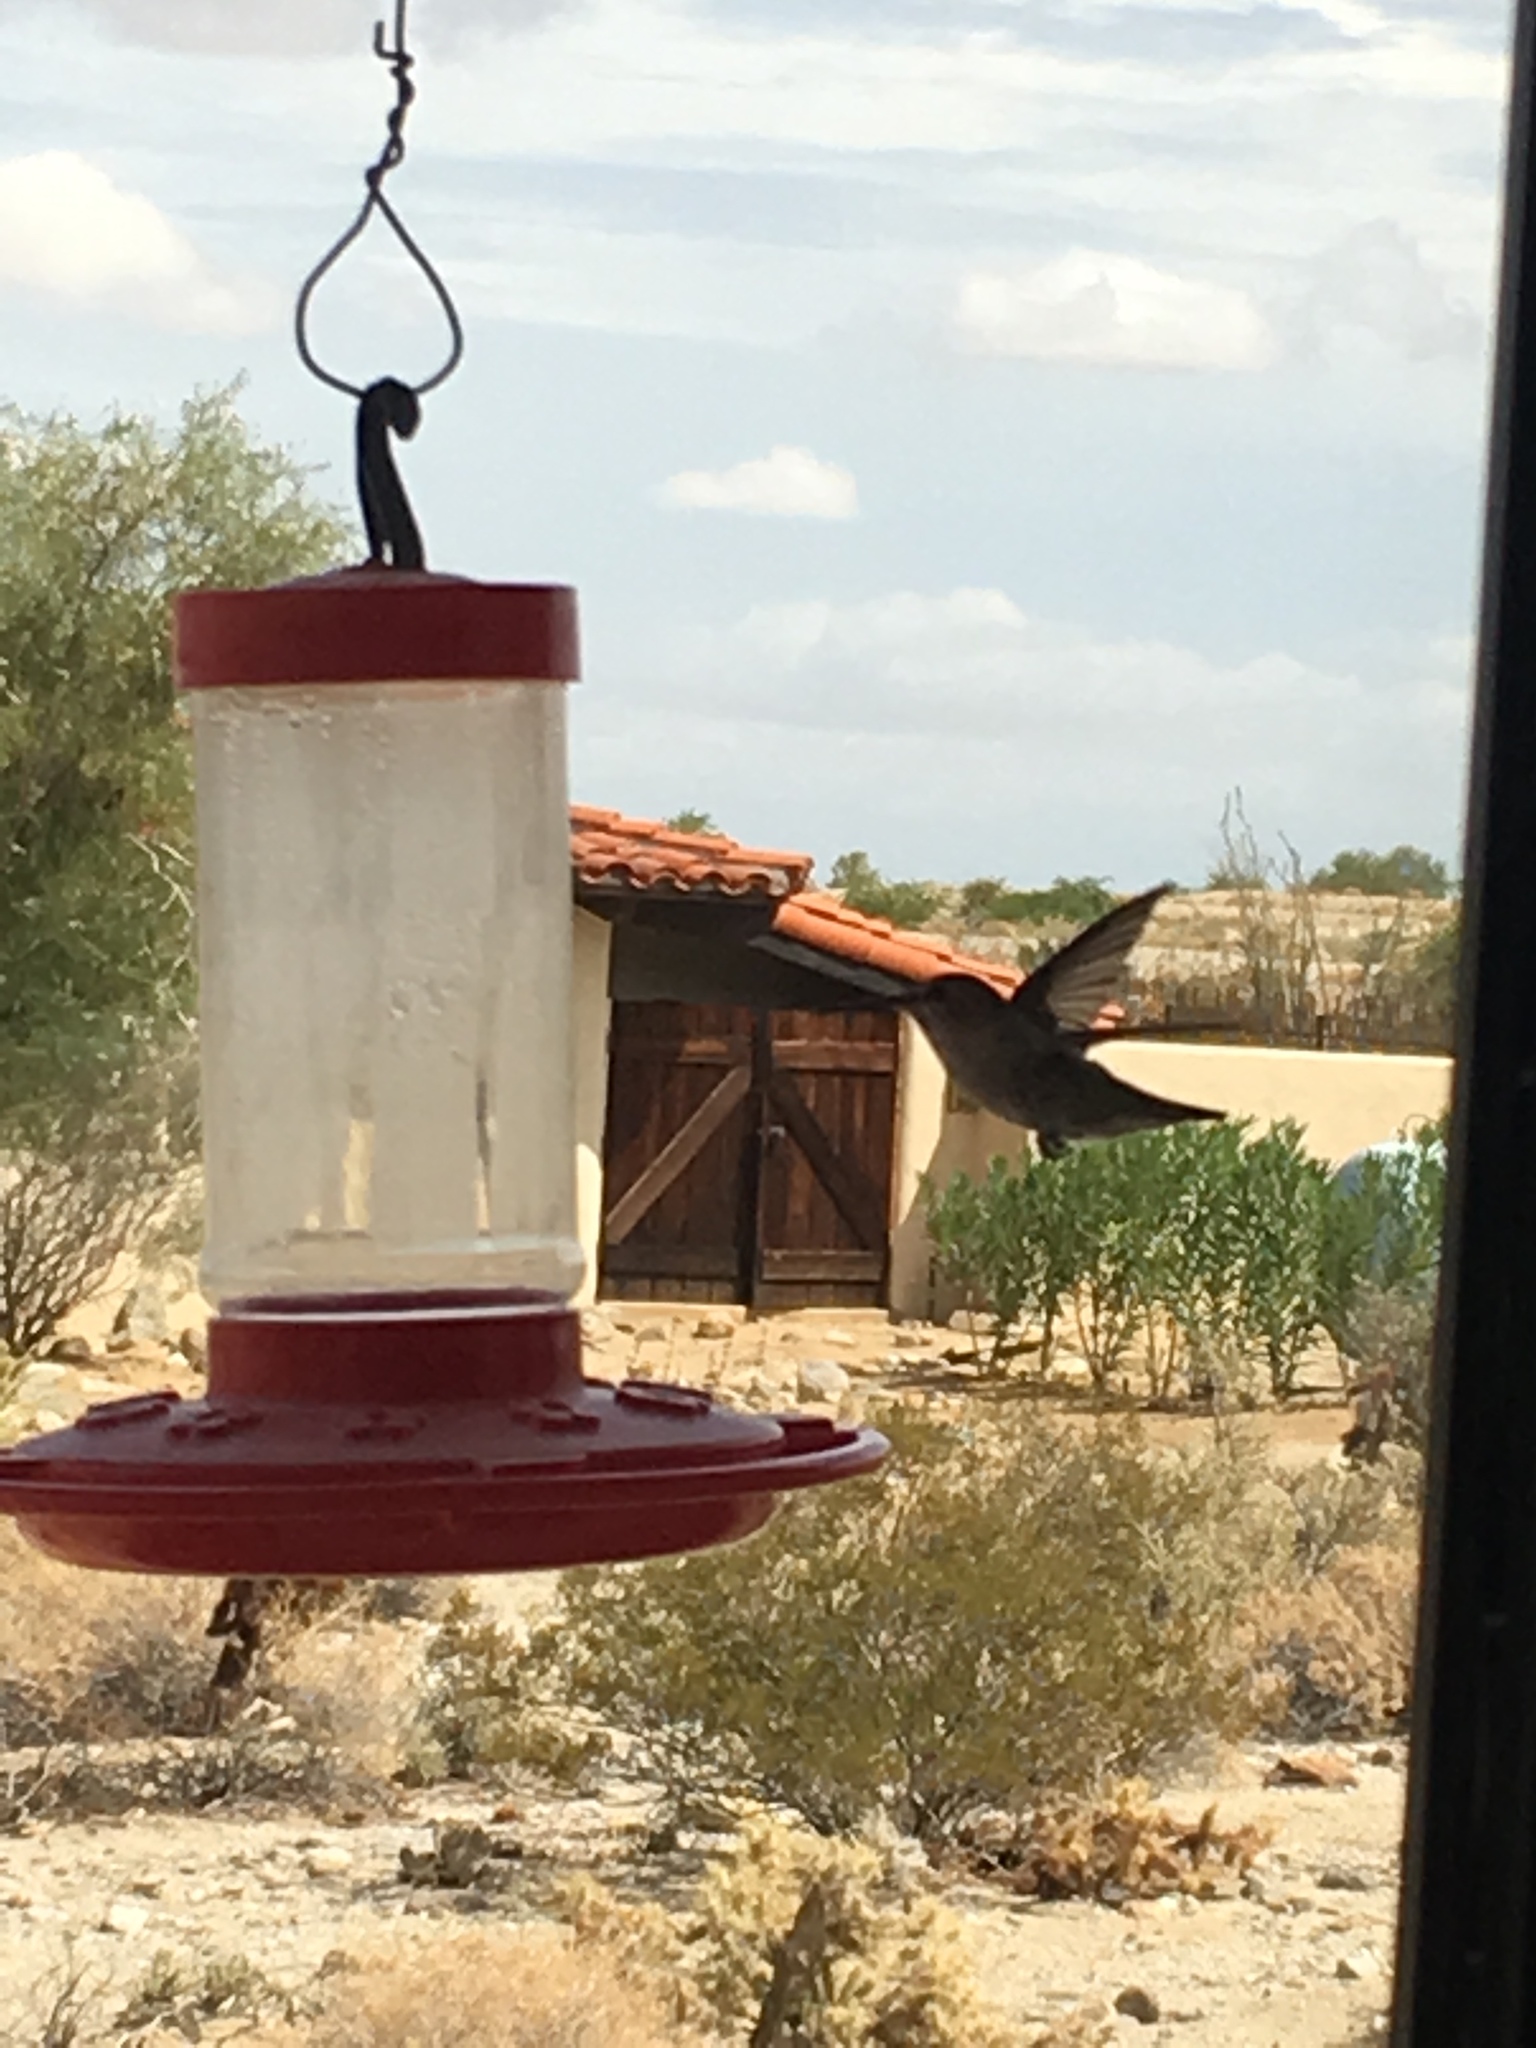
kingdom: Animalia
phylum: Chordata
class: Aves
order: Apodiformes
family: Trochilidae
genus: Calypte
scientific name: Calypte anna
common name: Anna's hummingbird
